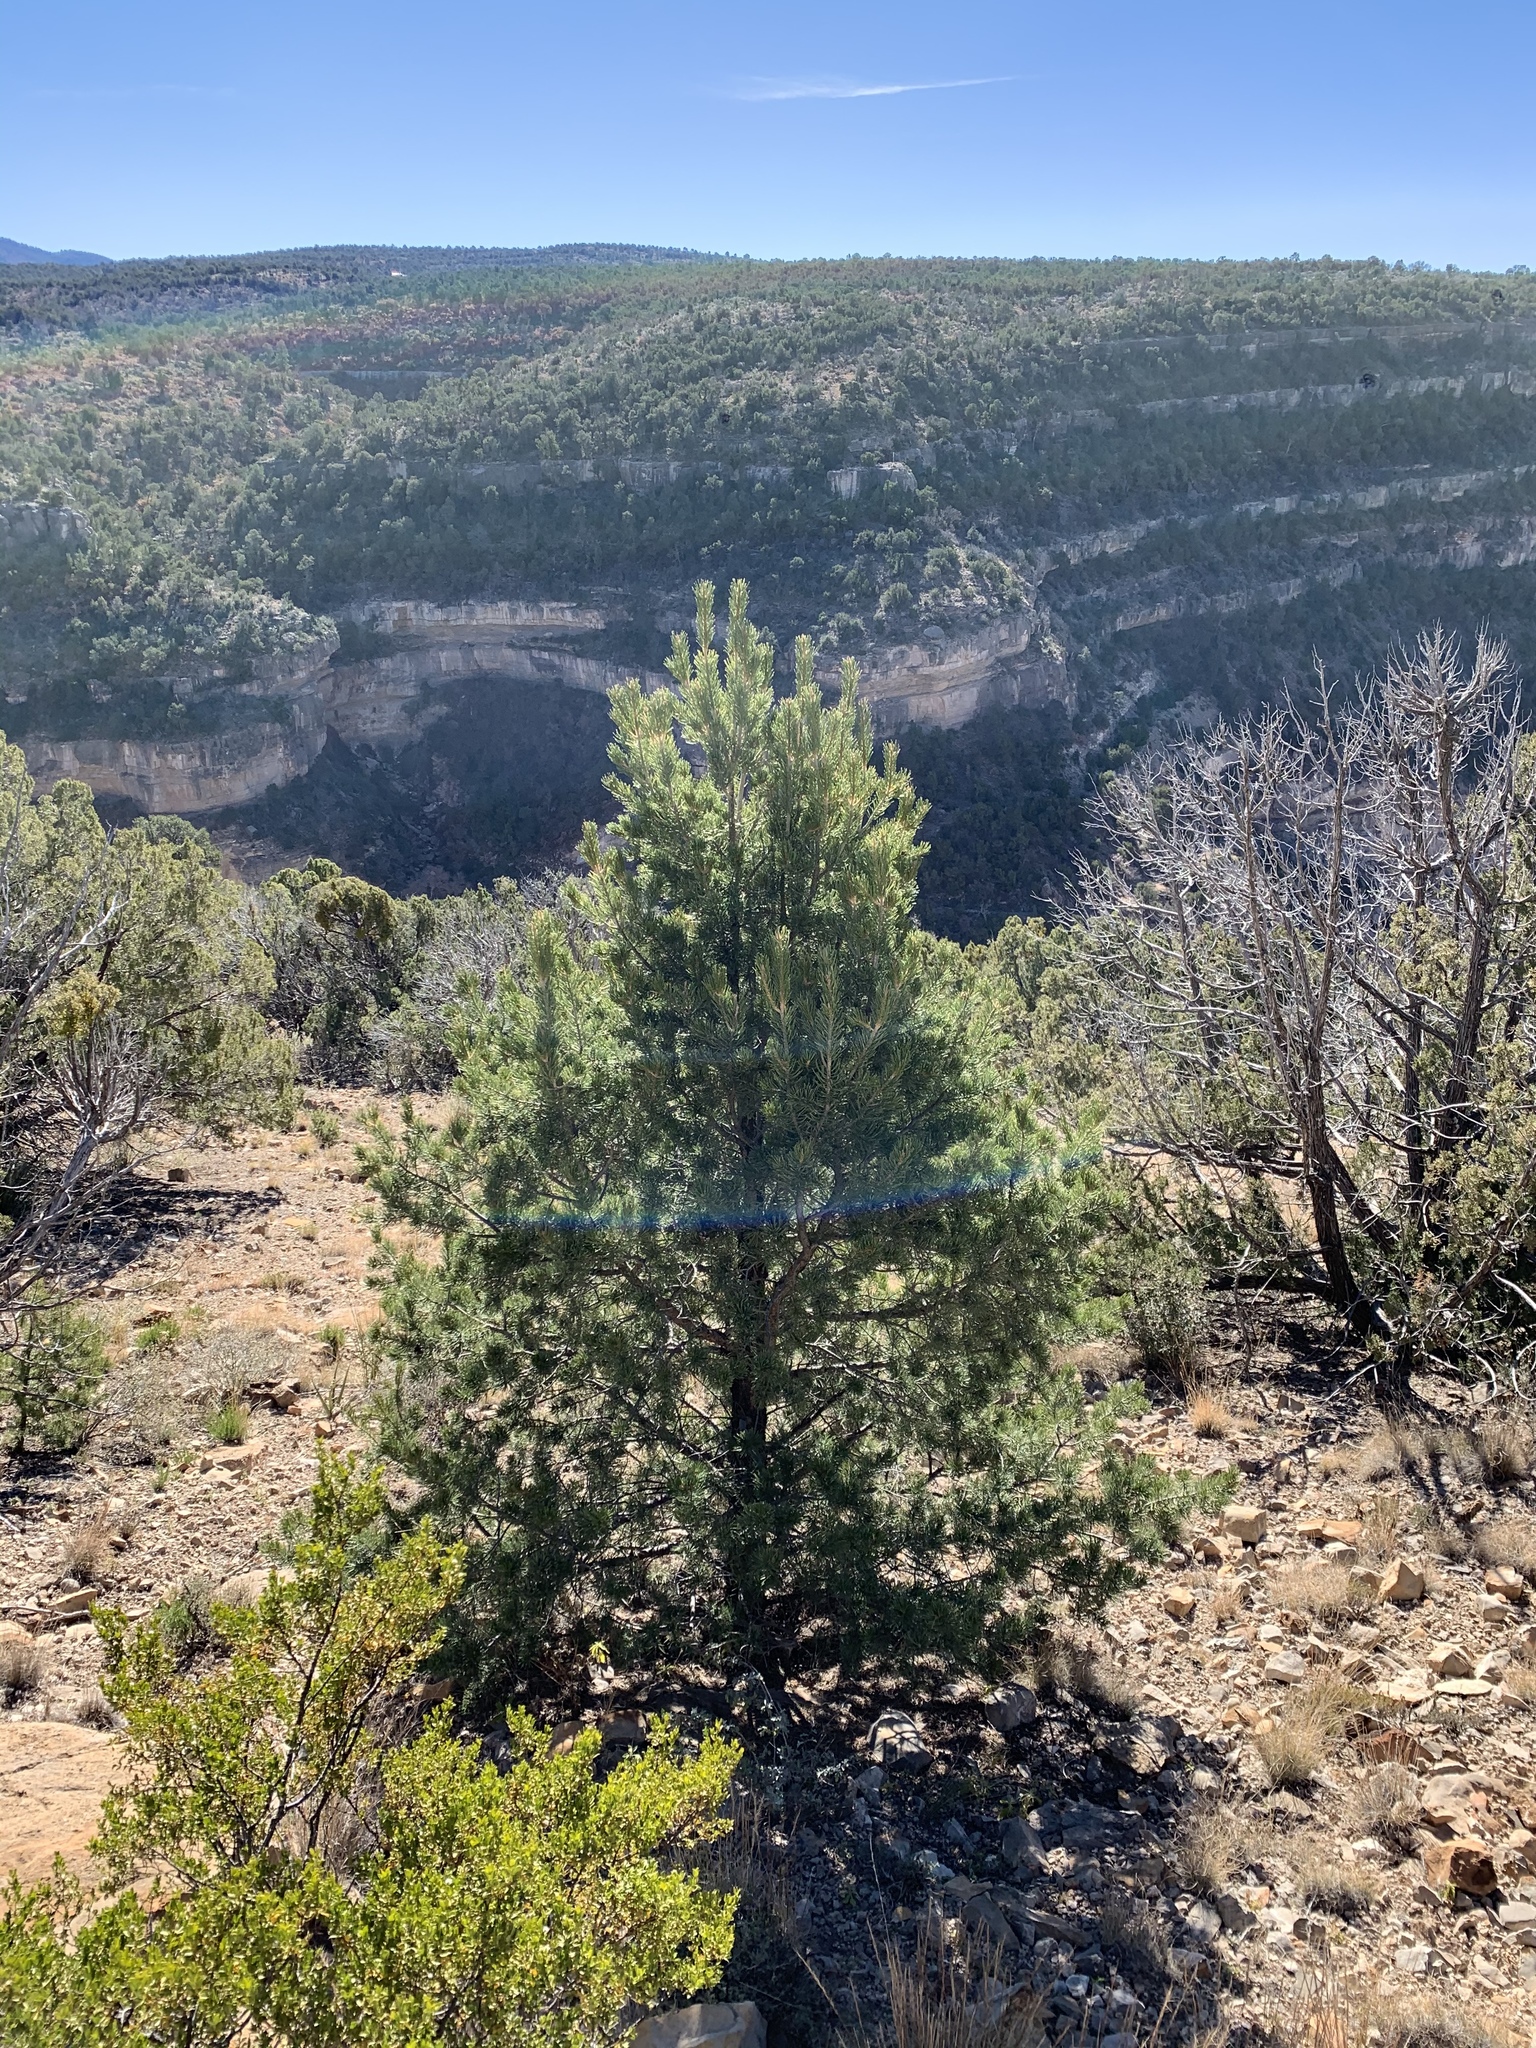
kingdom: Plantae
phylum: Tracheophyta
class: Pinopsida
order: Pinales
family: Pinaceae
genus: Pinus
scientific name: Pinus edulis
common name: Colorado pinyon
